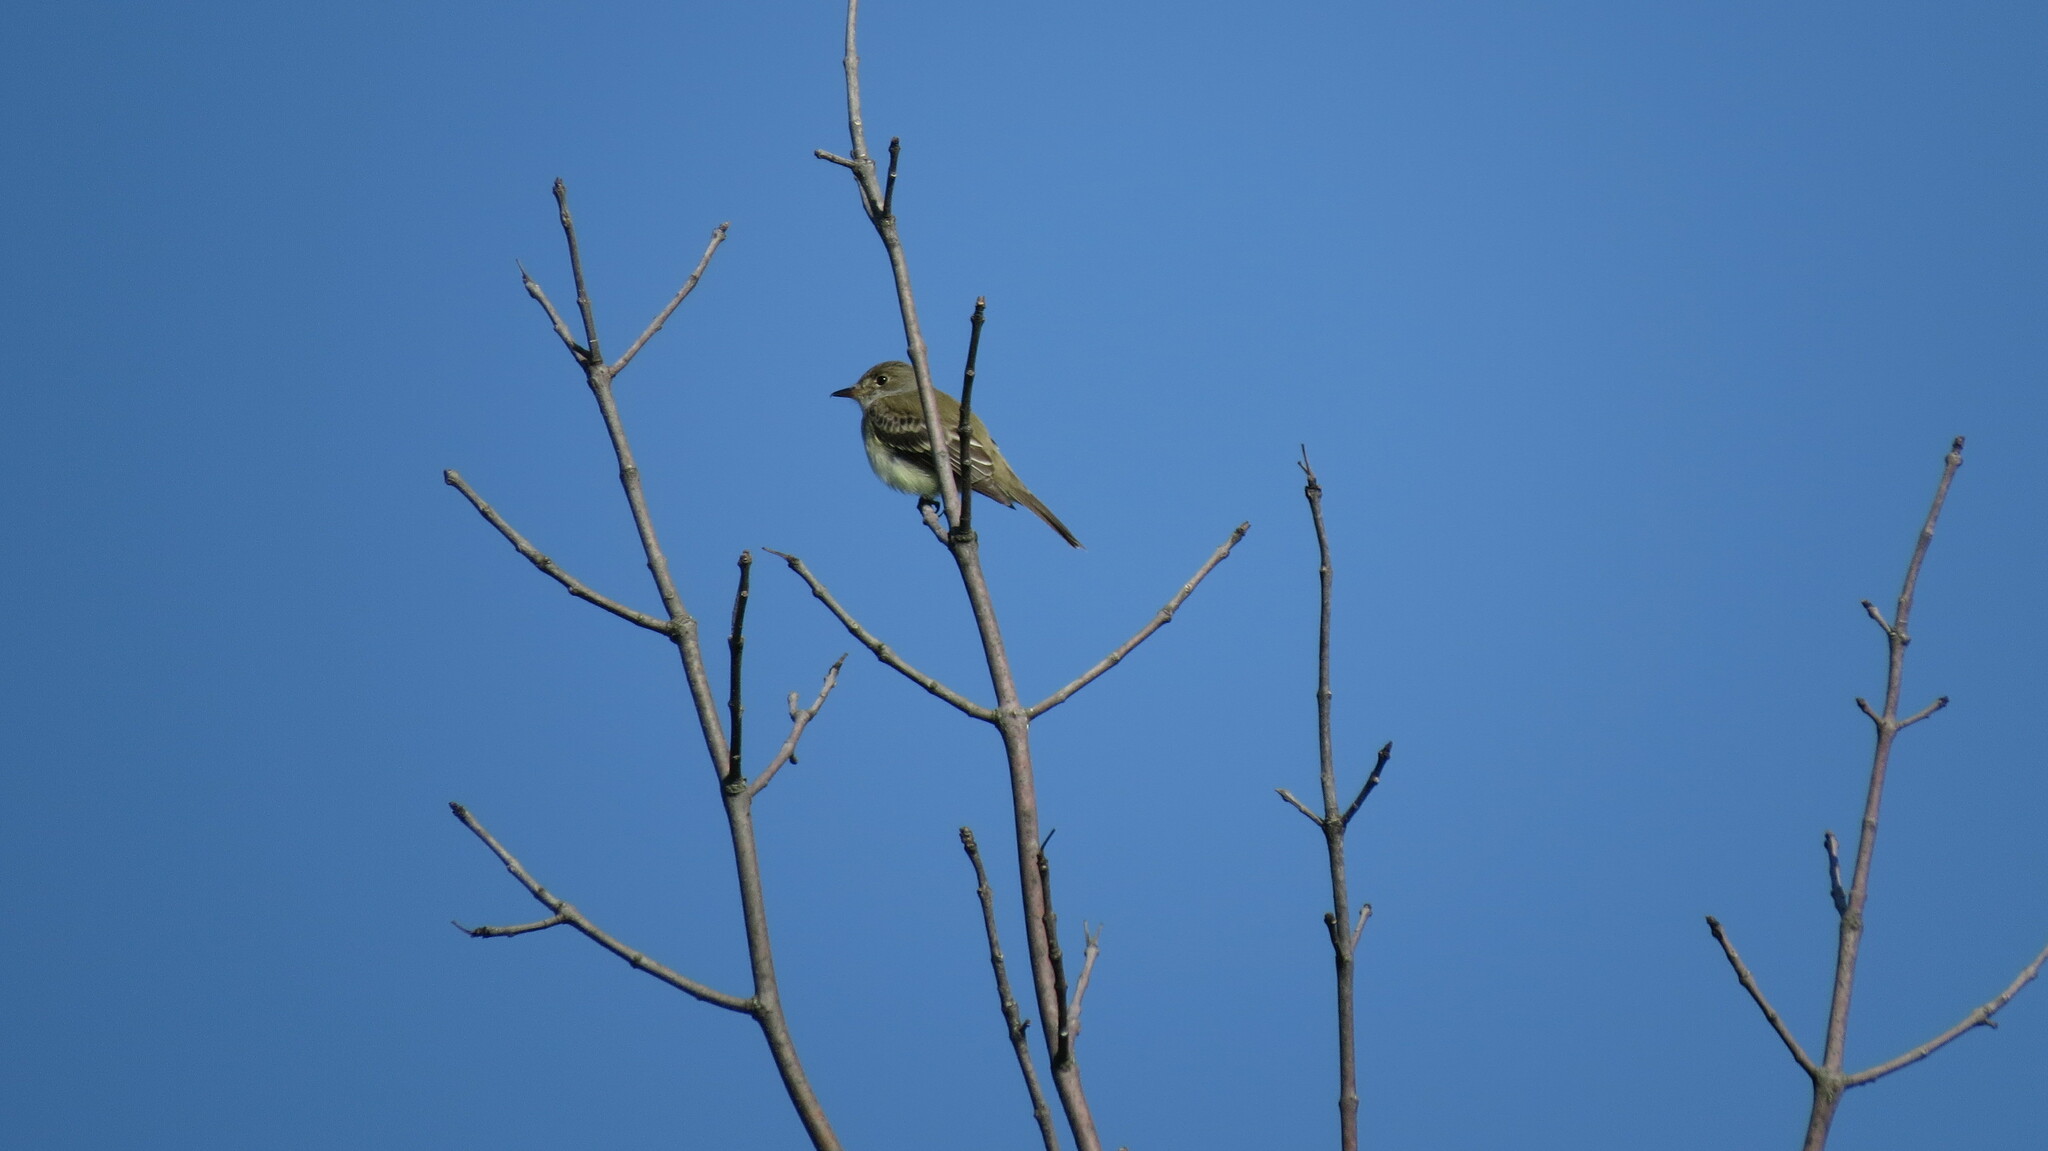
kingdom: Animalia
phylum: Chordata
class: Aves
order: Passeriformes
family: Tyrannidae
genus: Empidonax
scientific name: Empidonax traillii
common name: Willow flycatcher
